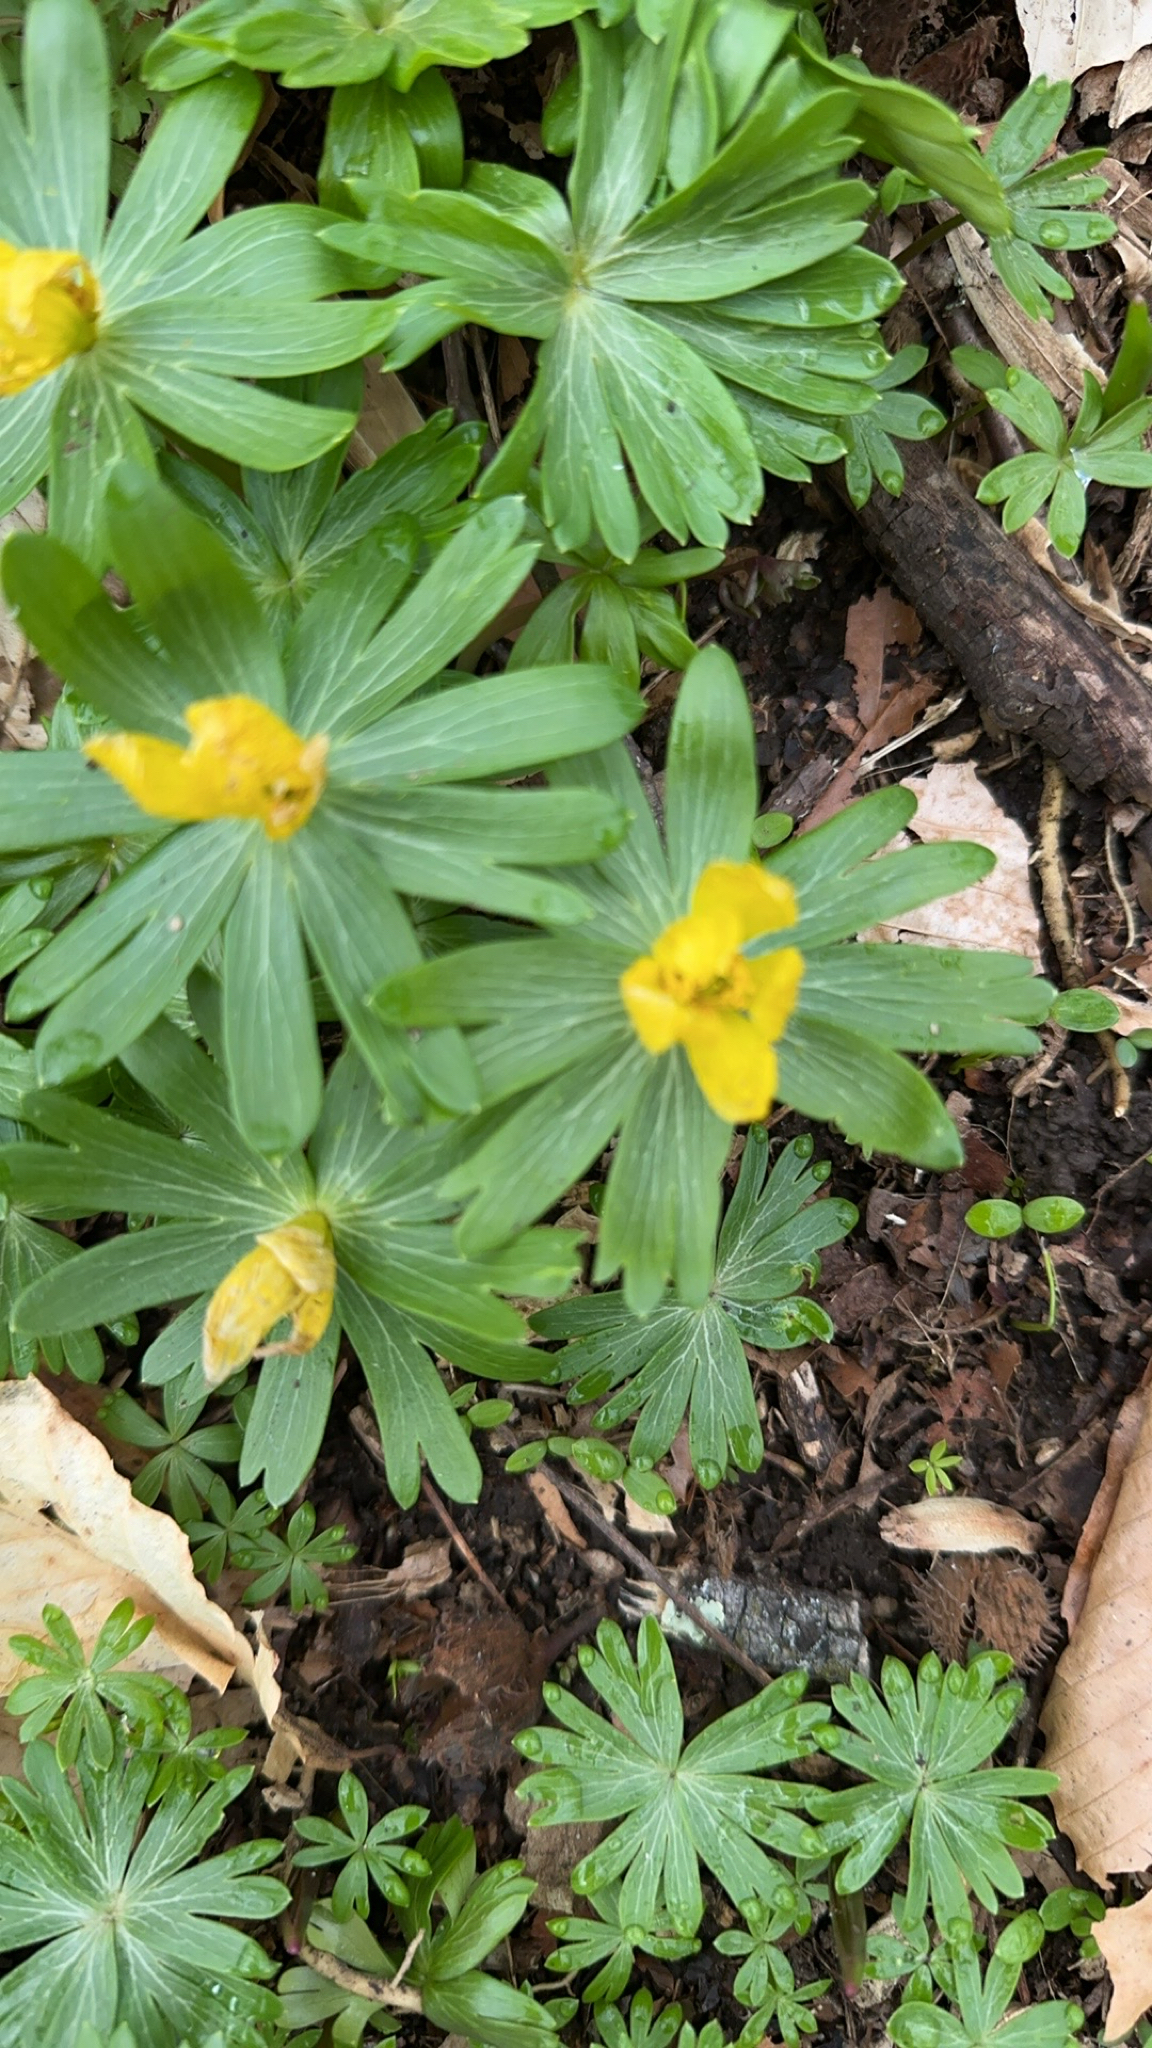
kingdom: Plantae
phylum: Tracheophyta
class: Magnoliopsida
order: Ranunculales
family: Ranunculaceae
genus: Eranthis
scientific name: Eranthis hyemalis
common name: Winter aconite
